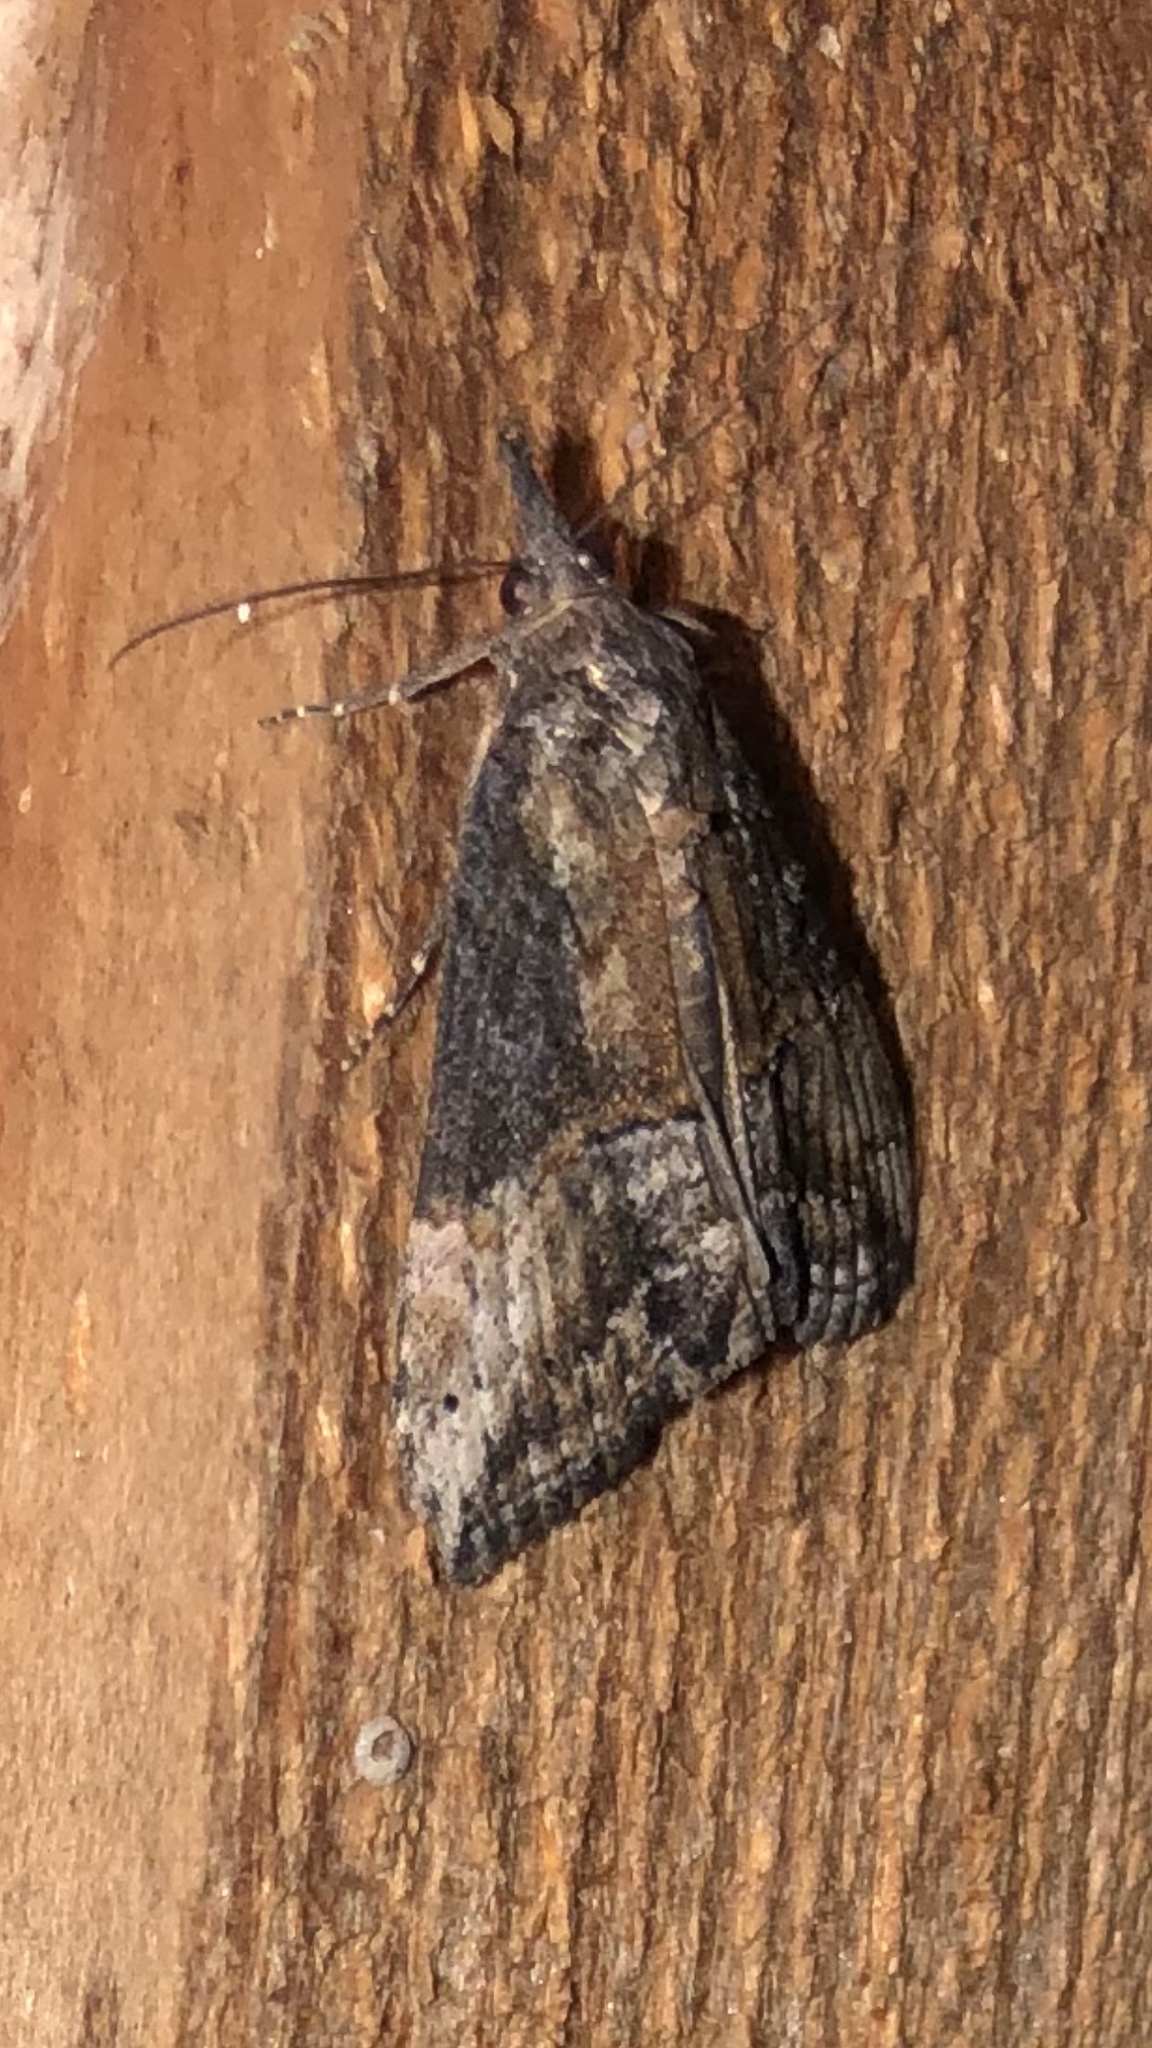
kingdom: Animalia
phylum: Arthropoda
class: Insecta
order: Lepidoptera
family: Erebidae
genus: Hypena
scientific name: Hypena scabra
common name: Green cloverworm
